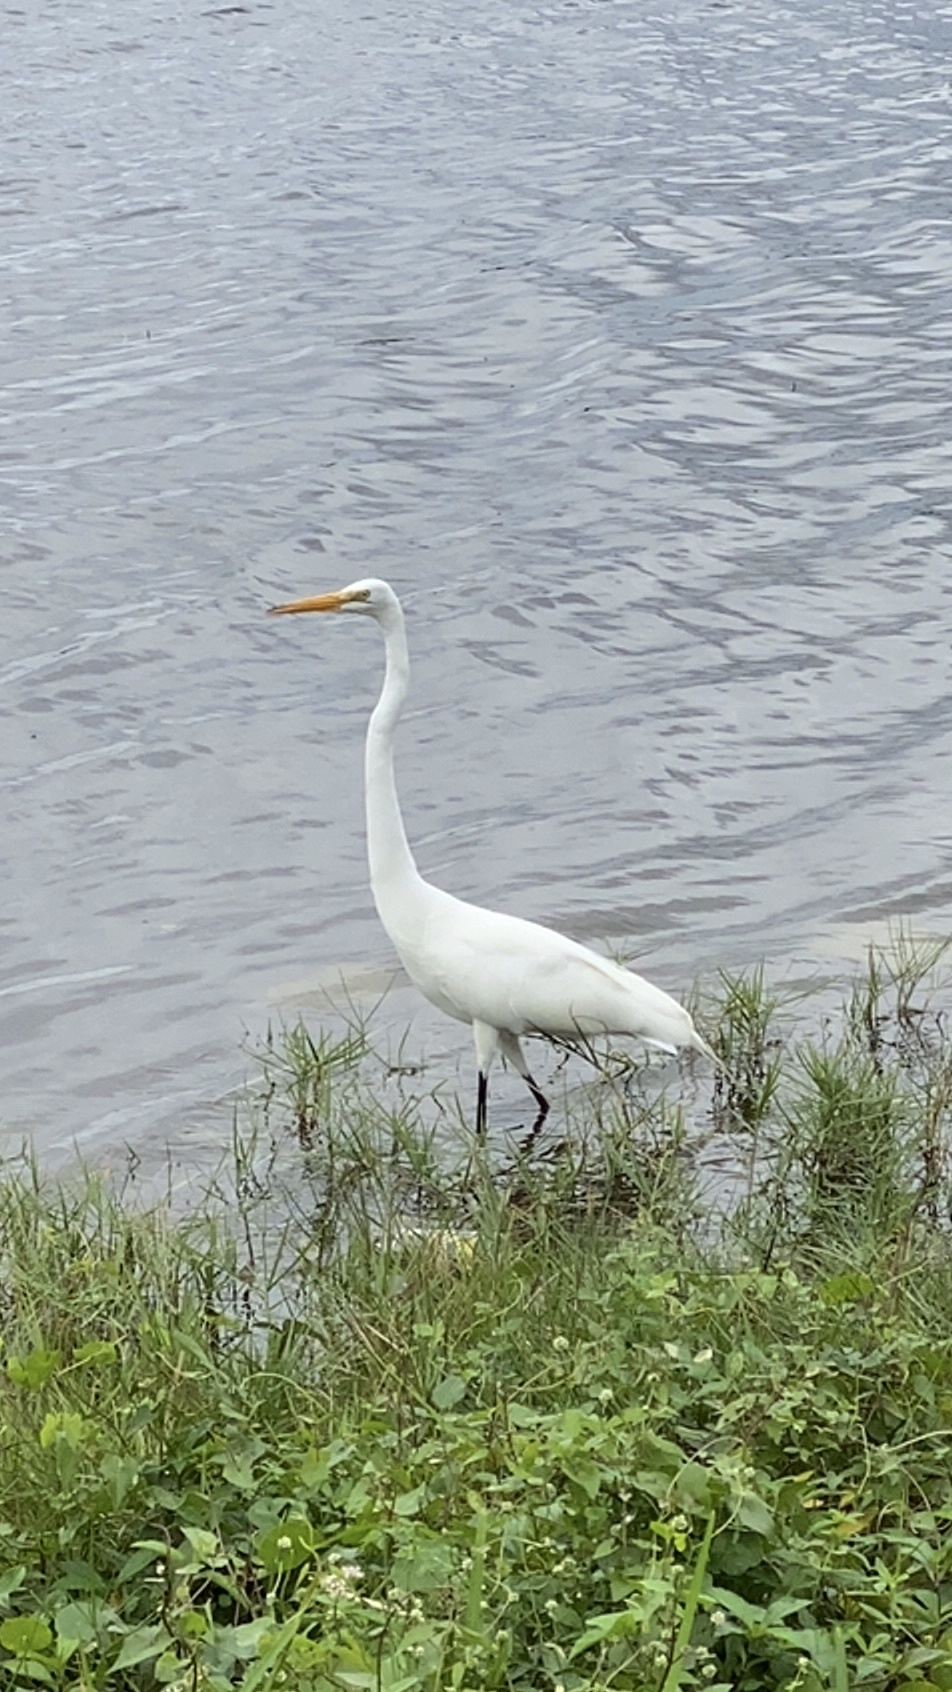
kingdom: Animalia
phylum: Chordata
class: Aves
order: Pelecaniformes
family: Ardeidae
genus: Ardea
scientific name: Ardea alba
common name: Great egret
